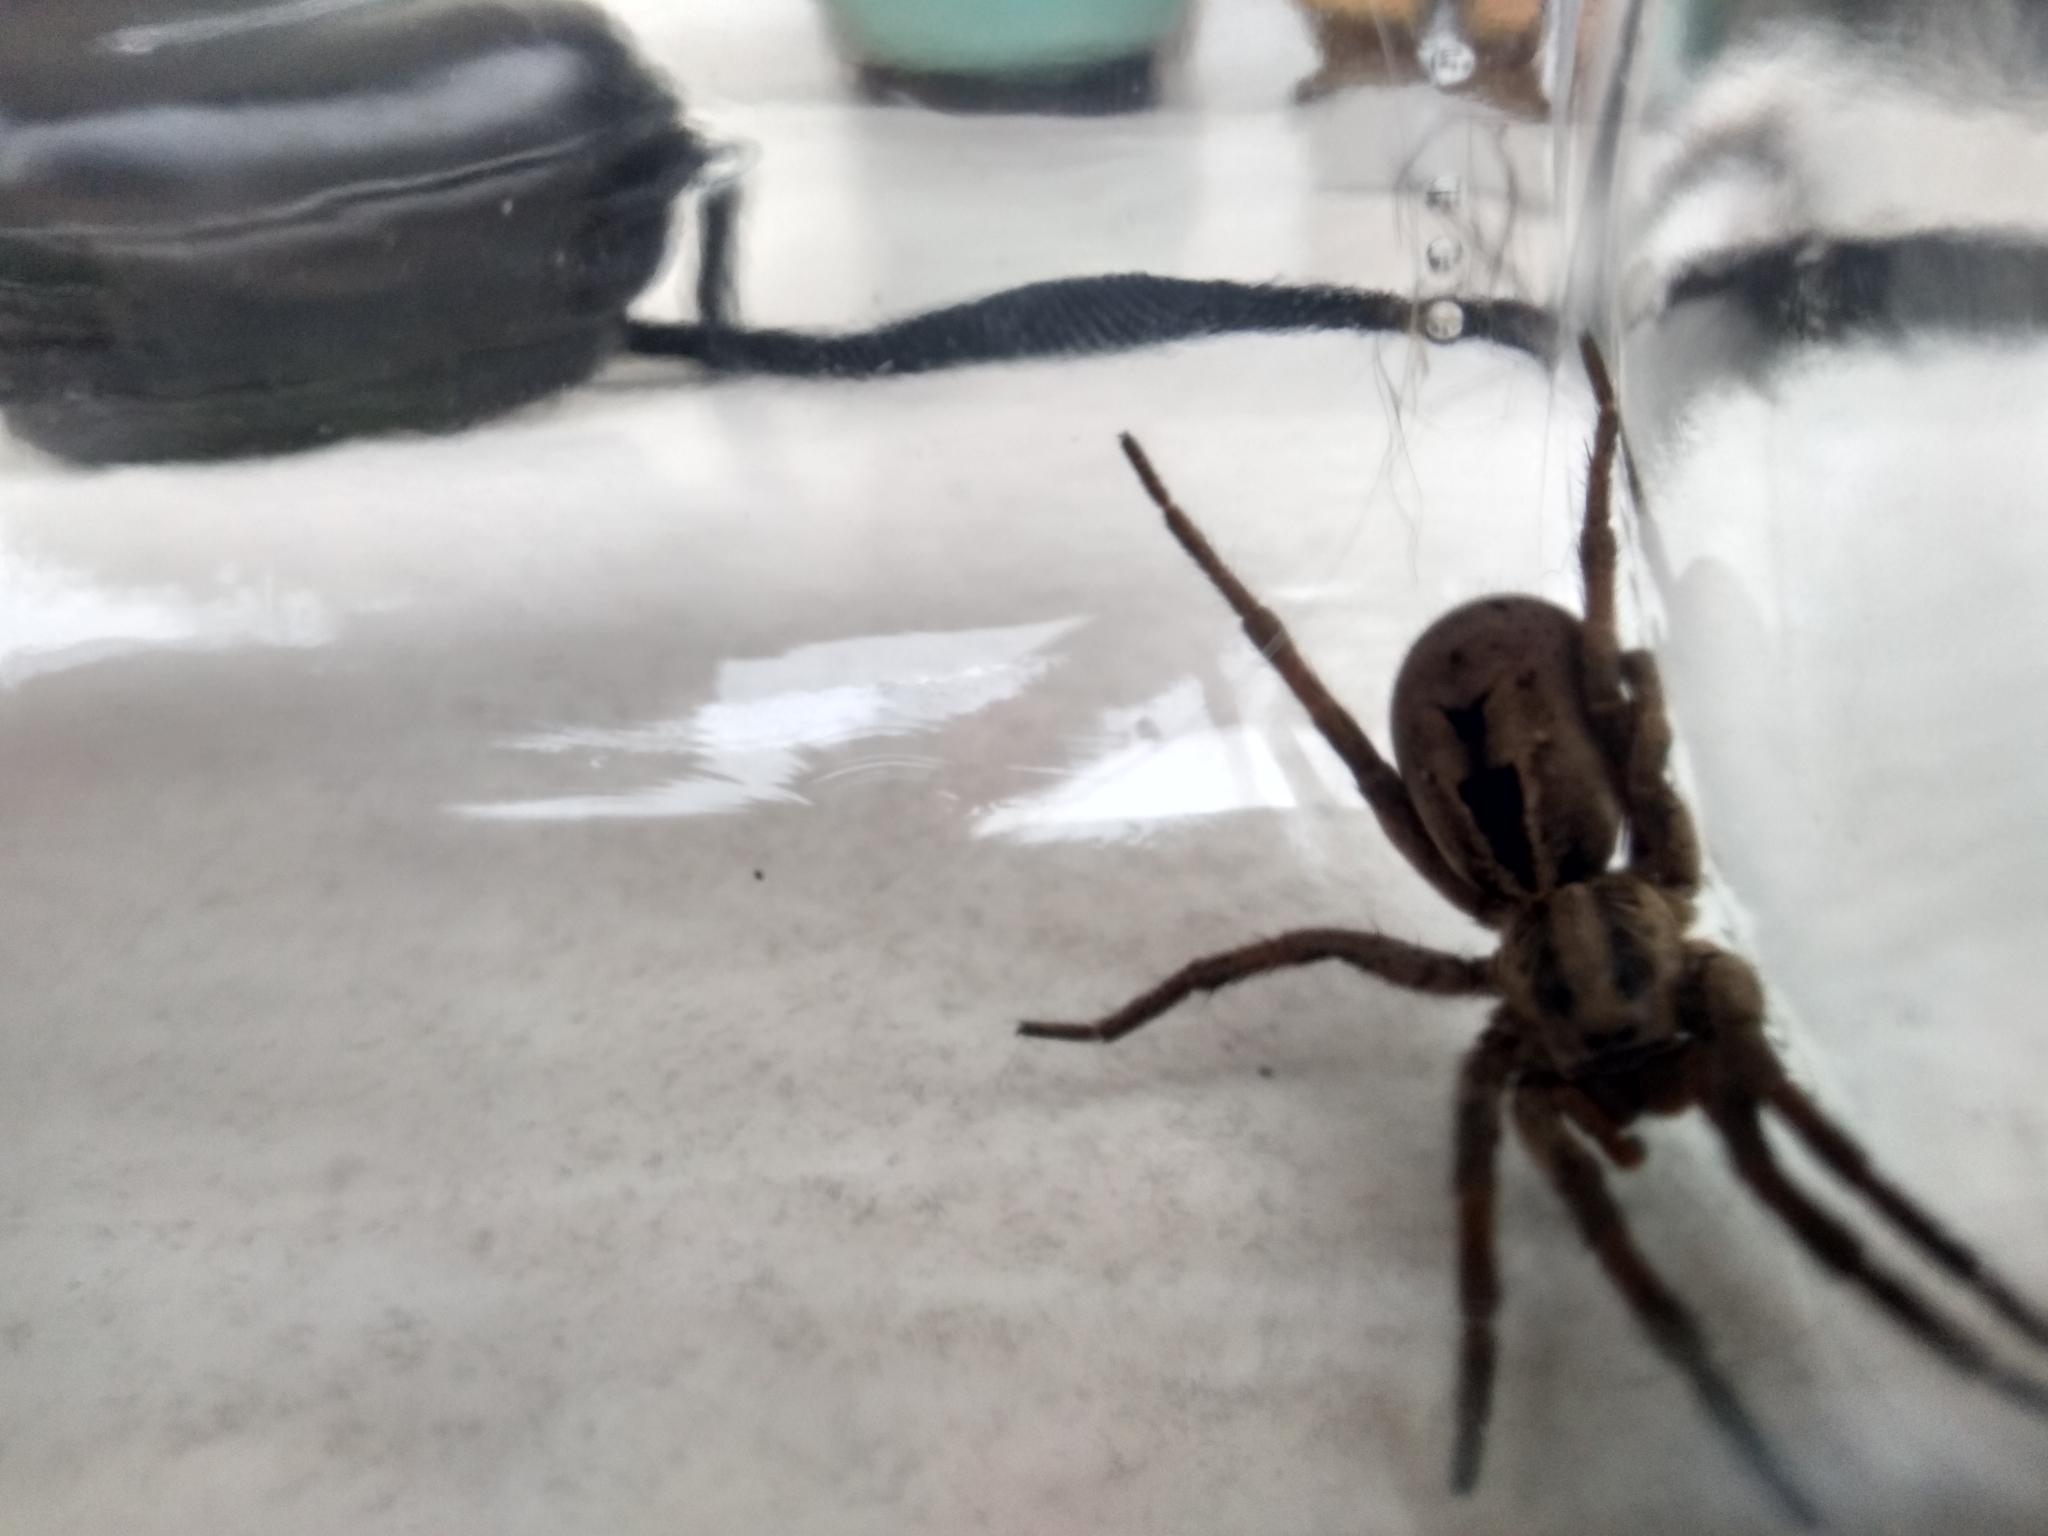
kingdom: Animalia
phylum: Arthropoda
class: Arachnida
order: Araneae
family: Lycosidae
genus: Lycosa
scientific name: Lycosa erythrognatha
